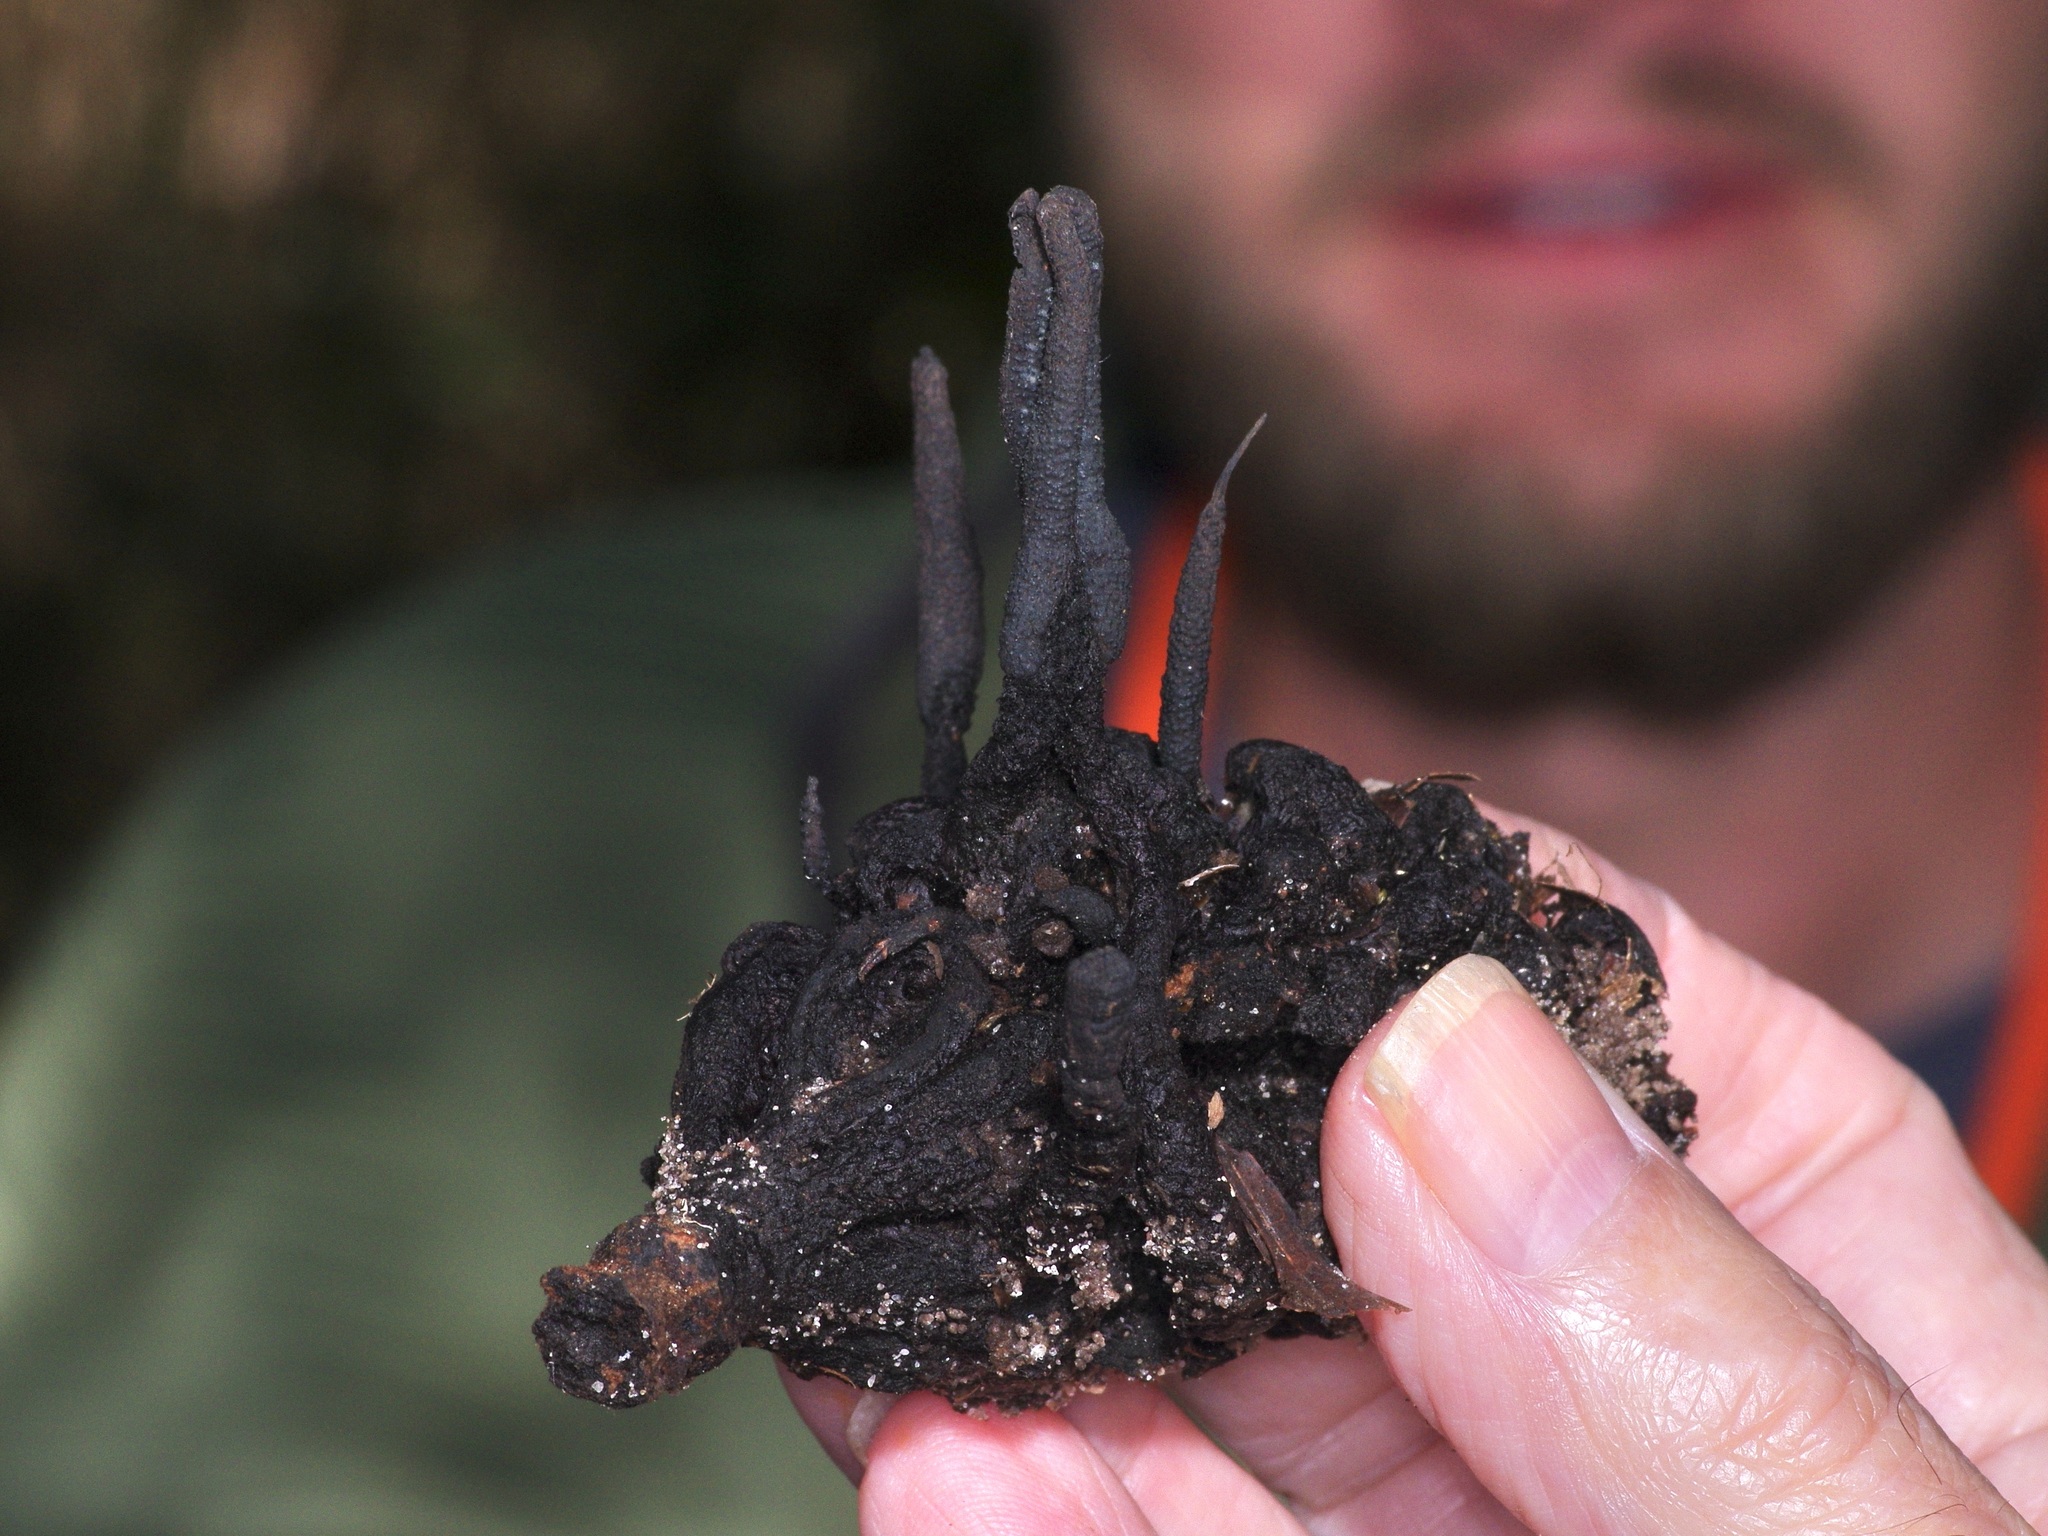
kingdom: Fungi
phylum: Ascomycota
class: Sordariomycetes
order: Xylariales
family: Xylariaceae
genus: Xylaria
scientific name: Xylaria magnoliae
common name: Magnolia-cone xylaria
